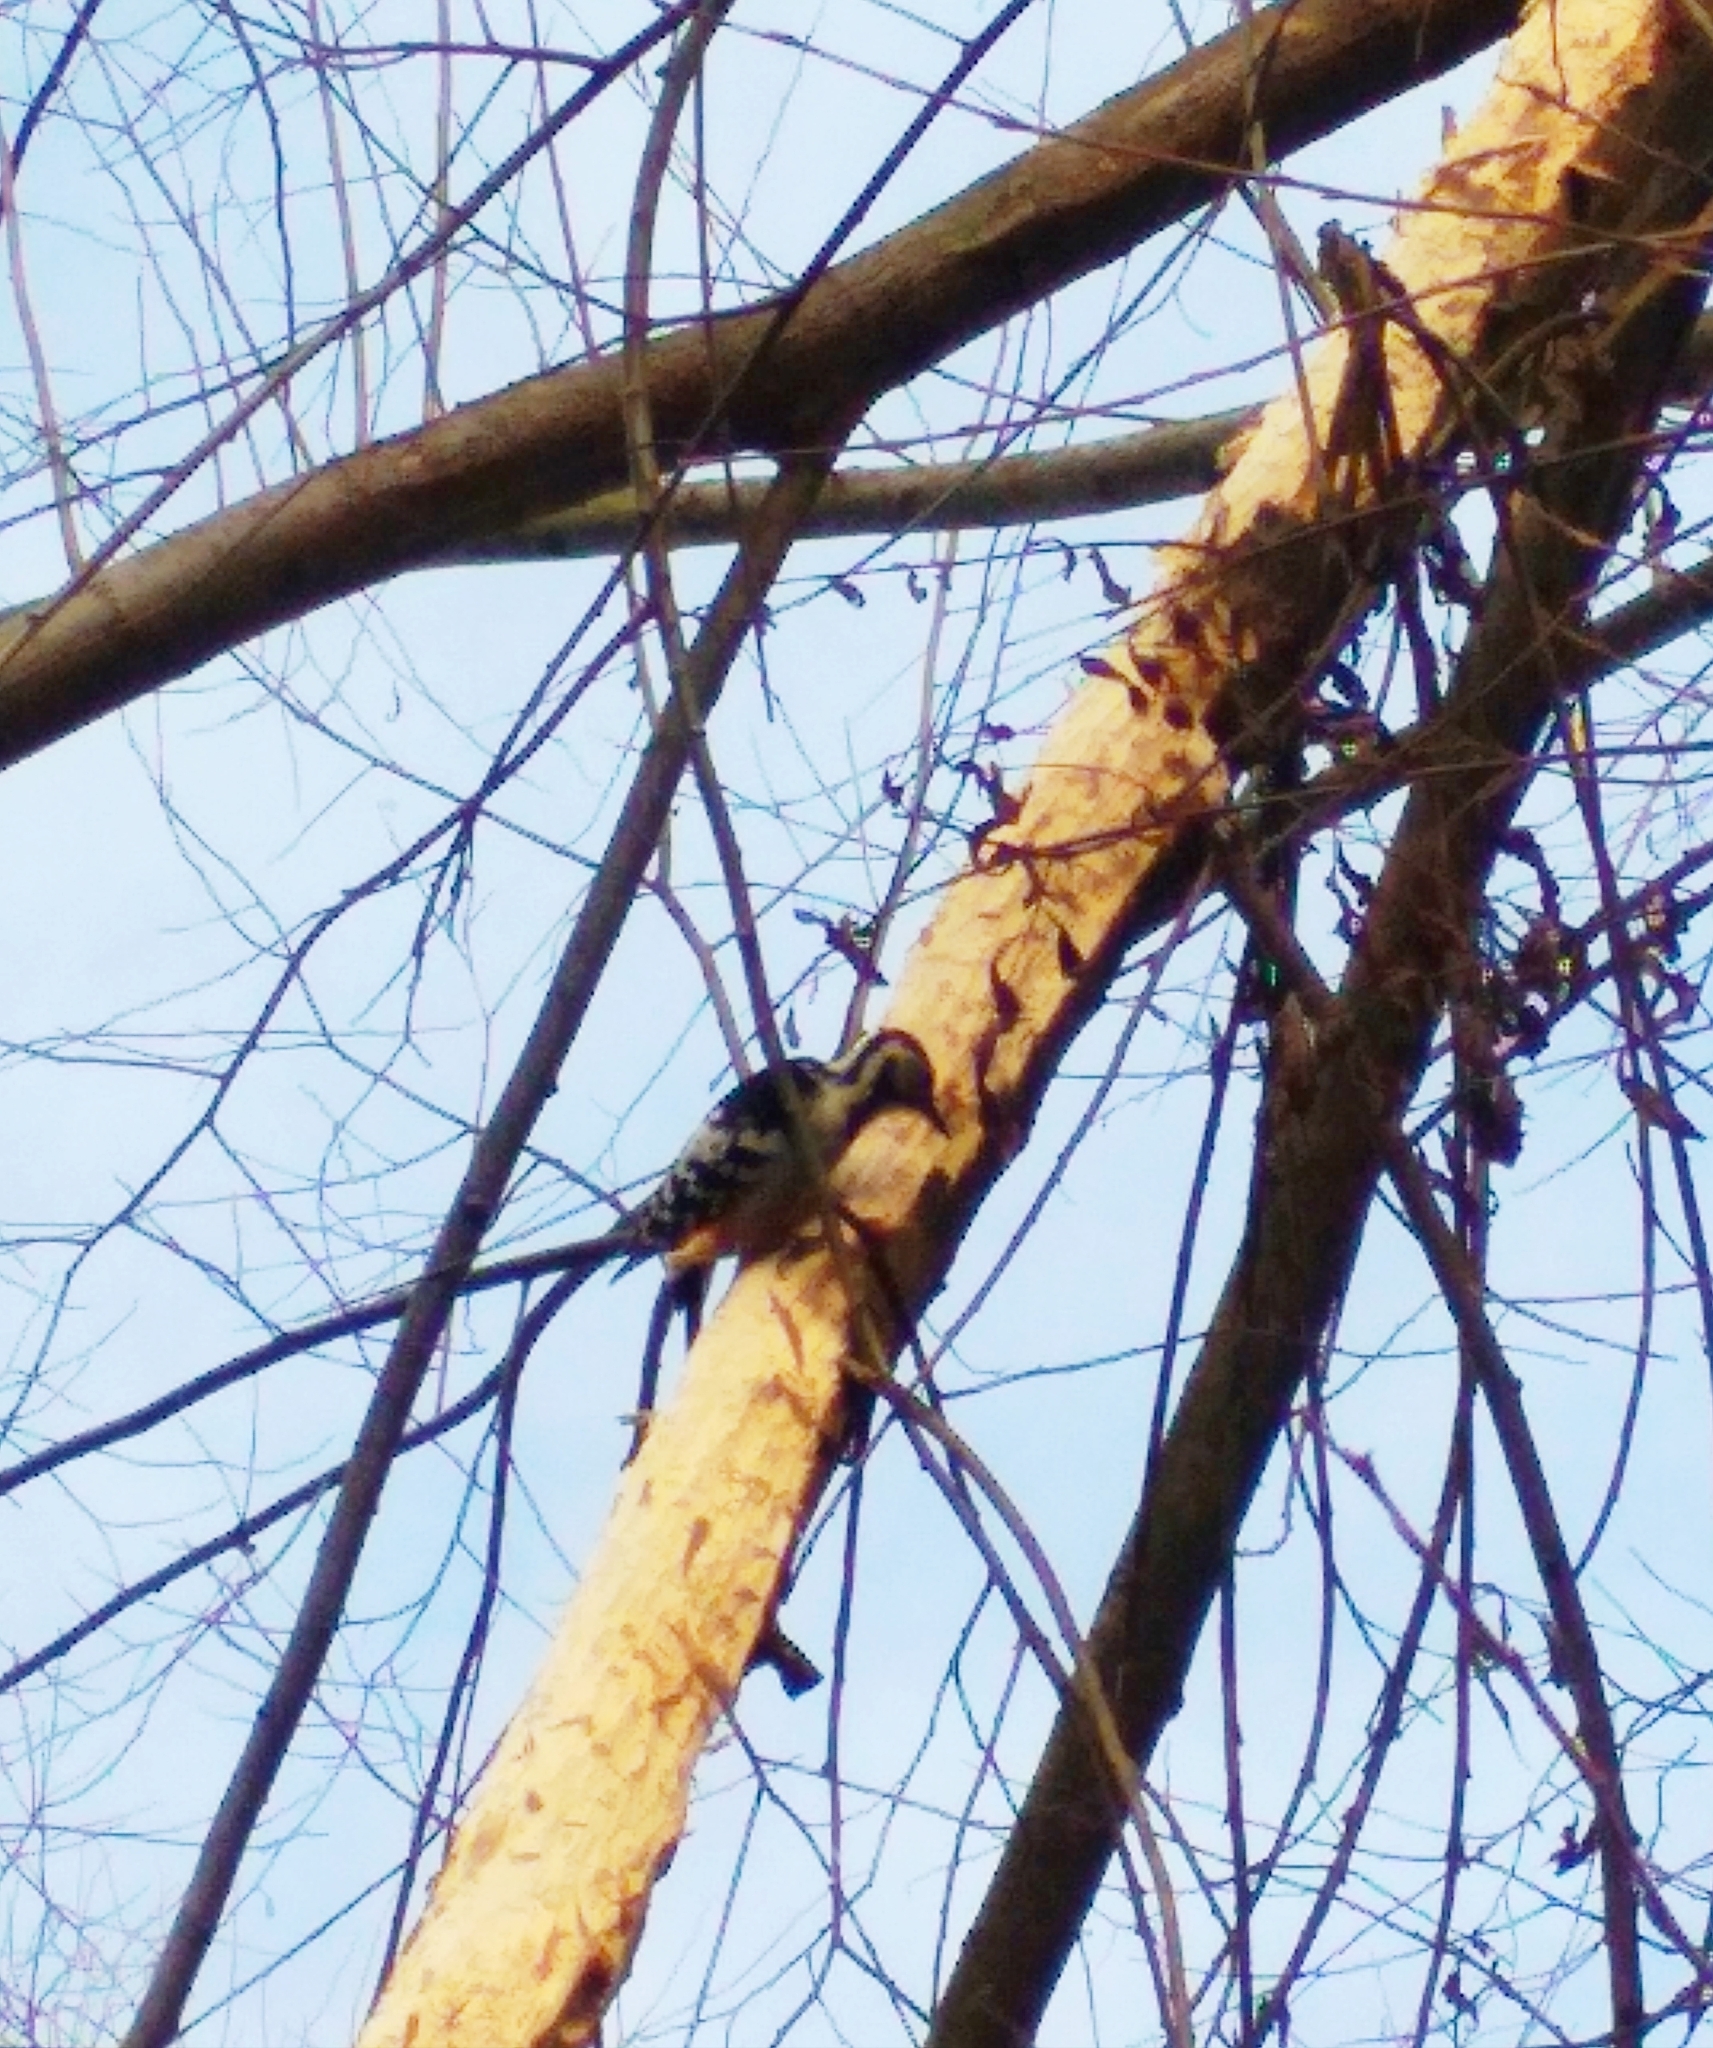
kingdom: Animalia
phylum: Chordata
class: Aves
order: Piciformes
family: Picidae
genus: Dendrocopos
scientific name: Dendrocopos leucotos
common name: White-backed woodpecker
